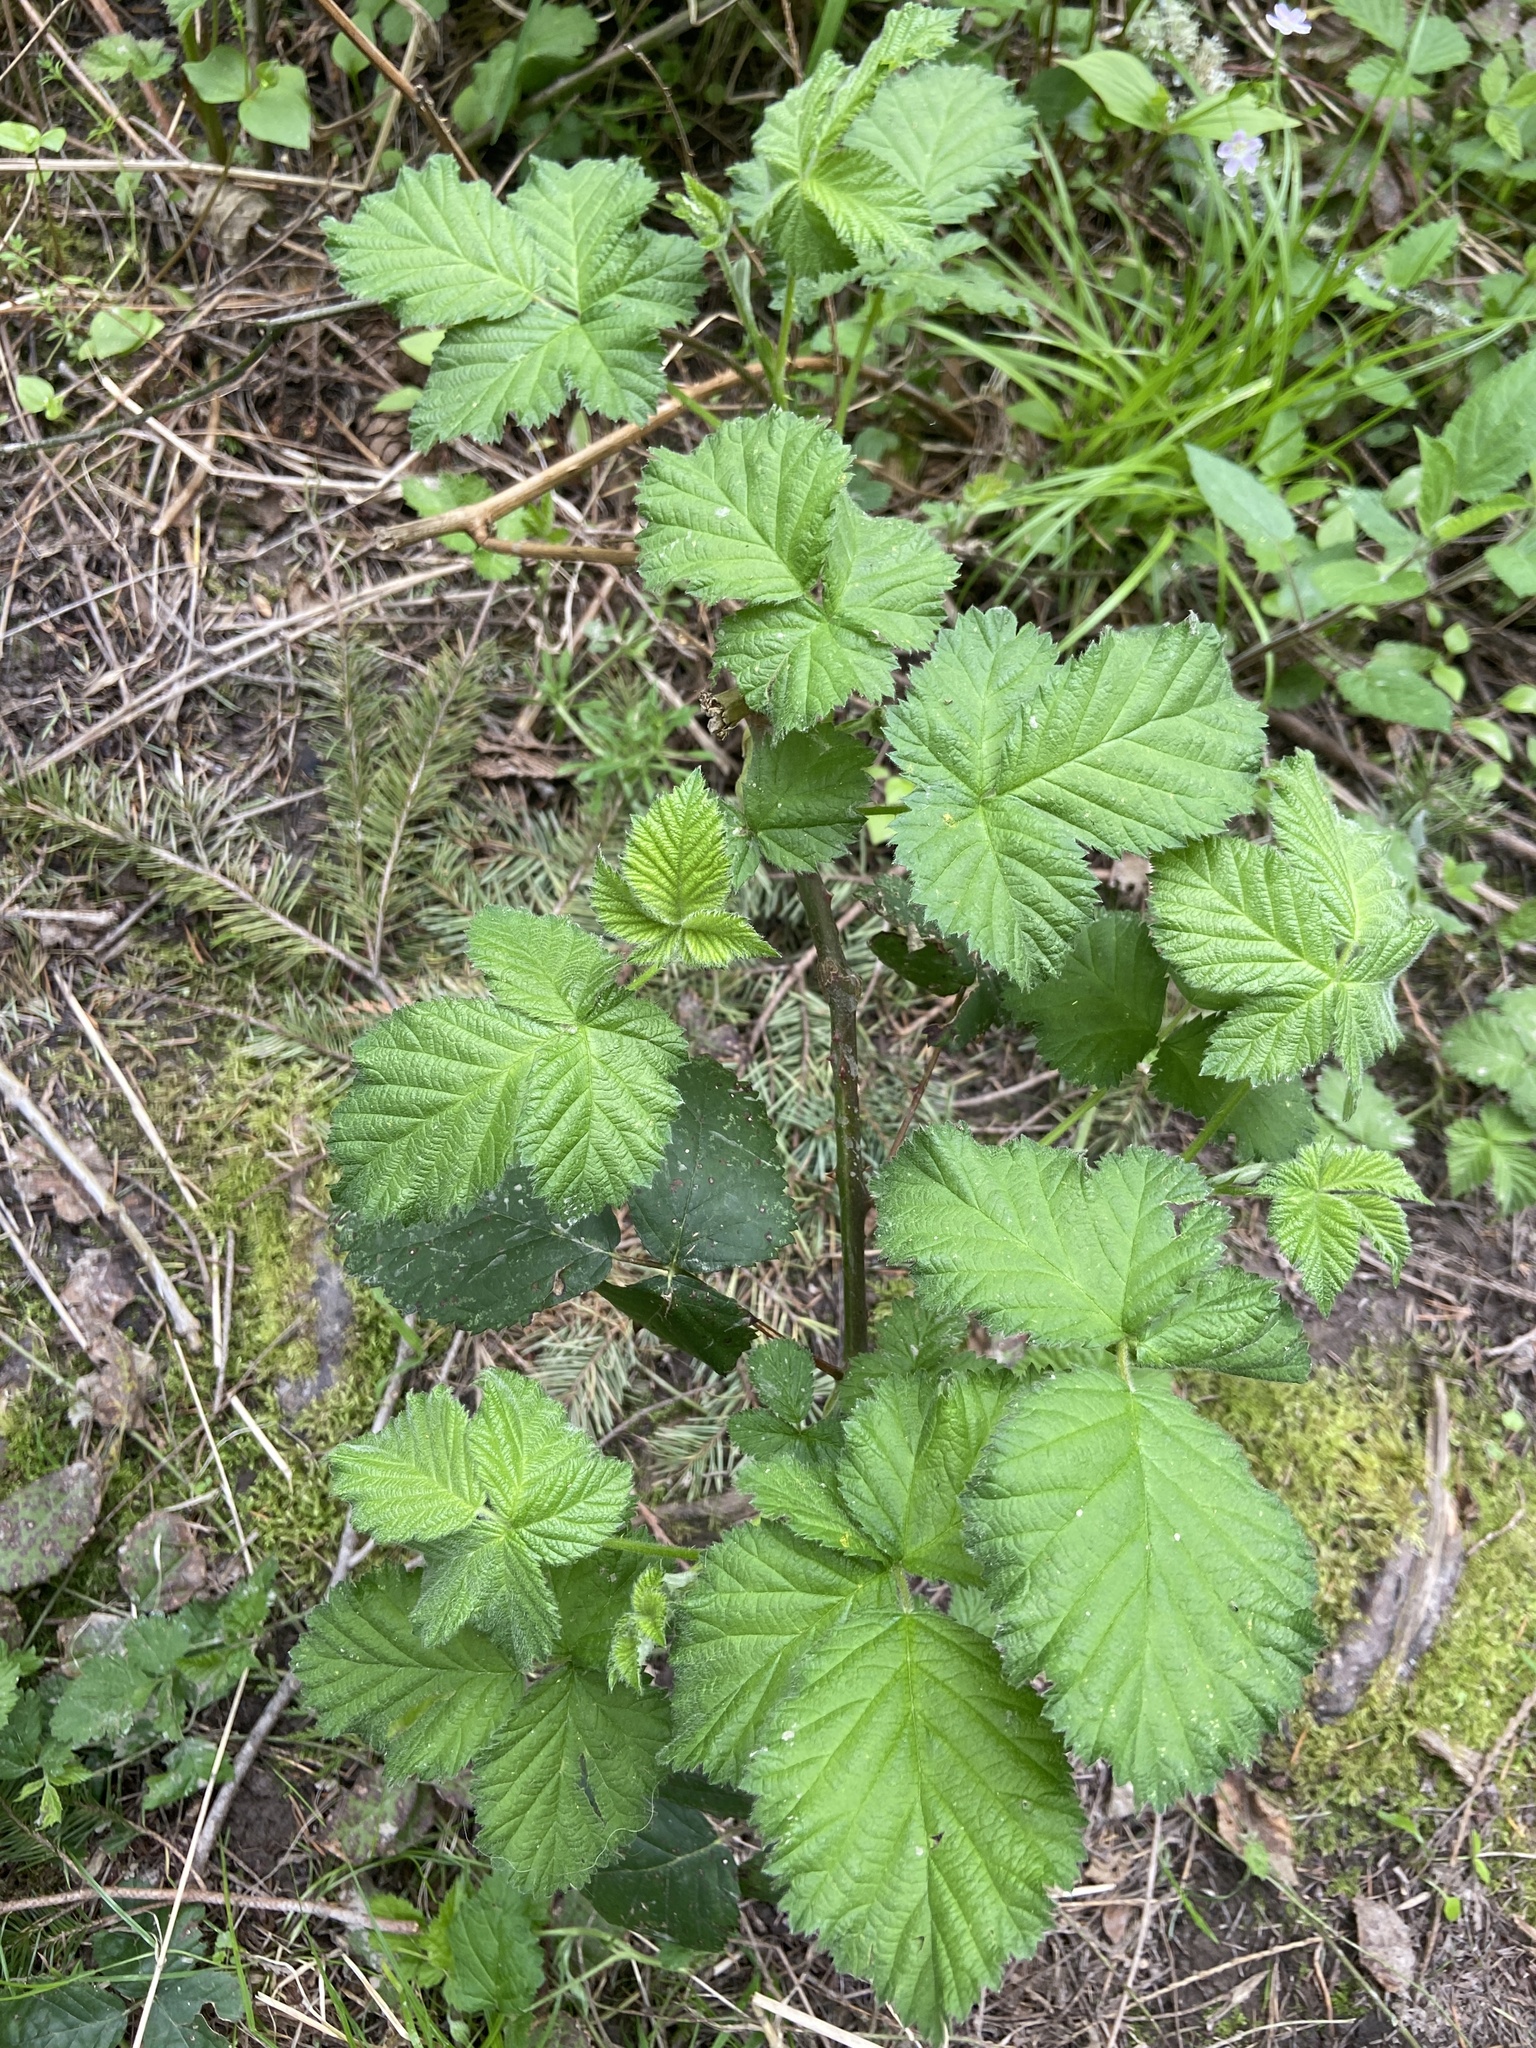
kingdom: Plantae
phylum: Tracheophyta
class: Magnoliopsida
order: Rosales
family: Rosaceae
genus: Rubus
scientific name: Rubus bifrons
